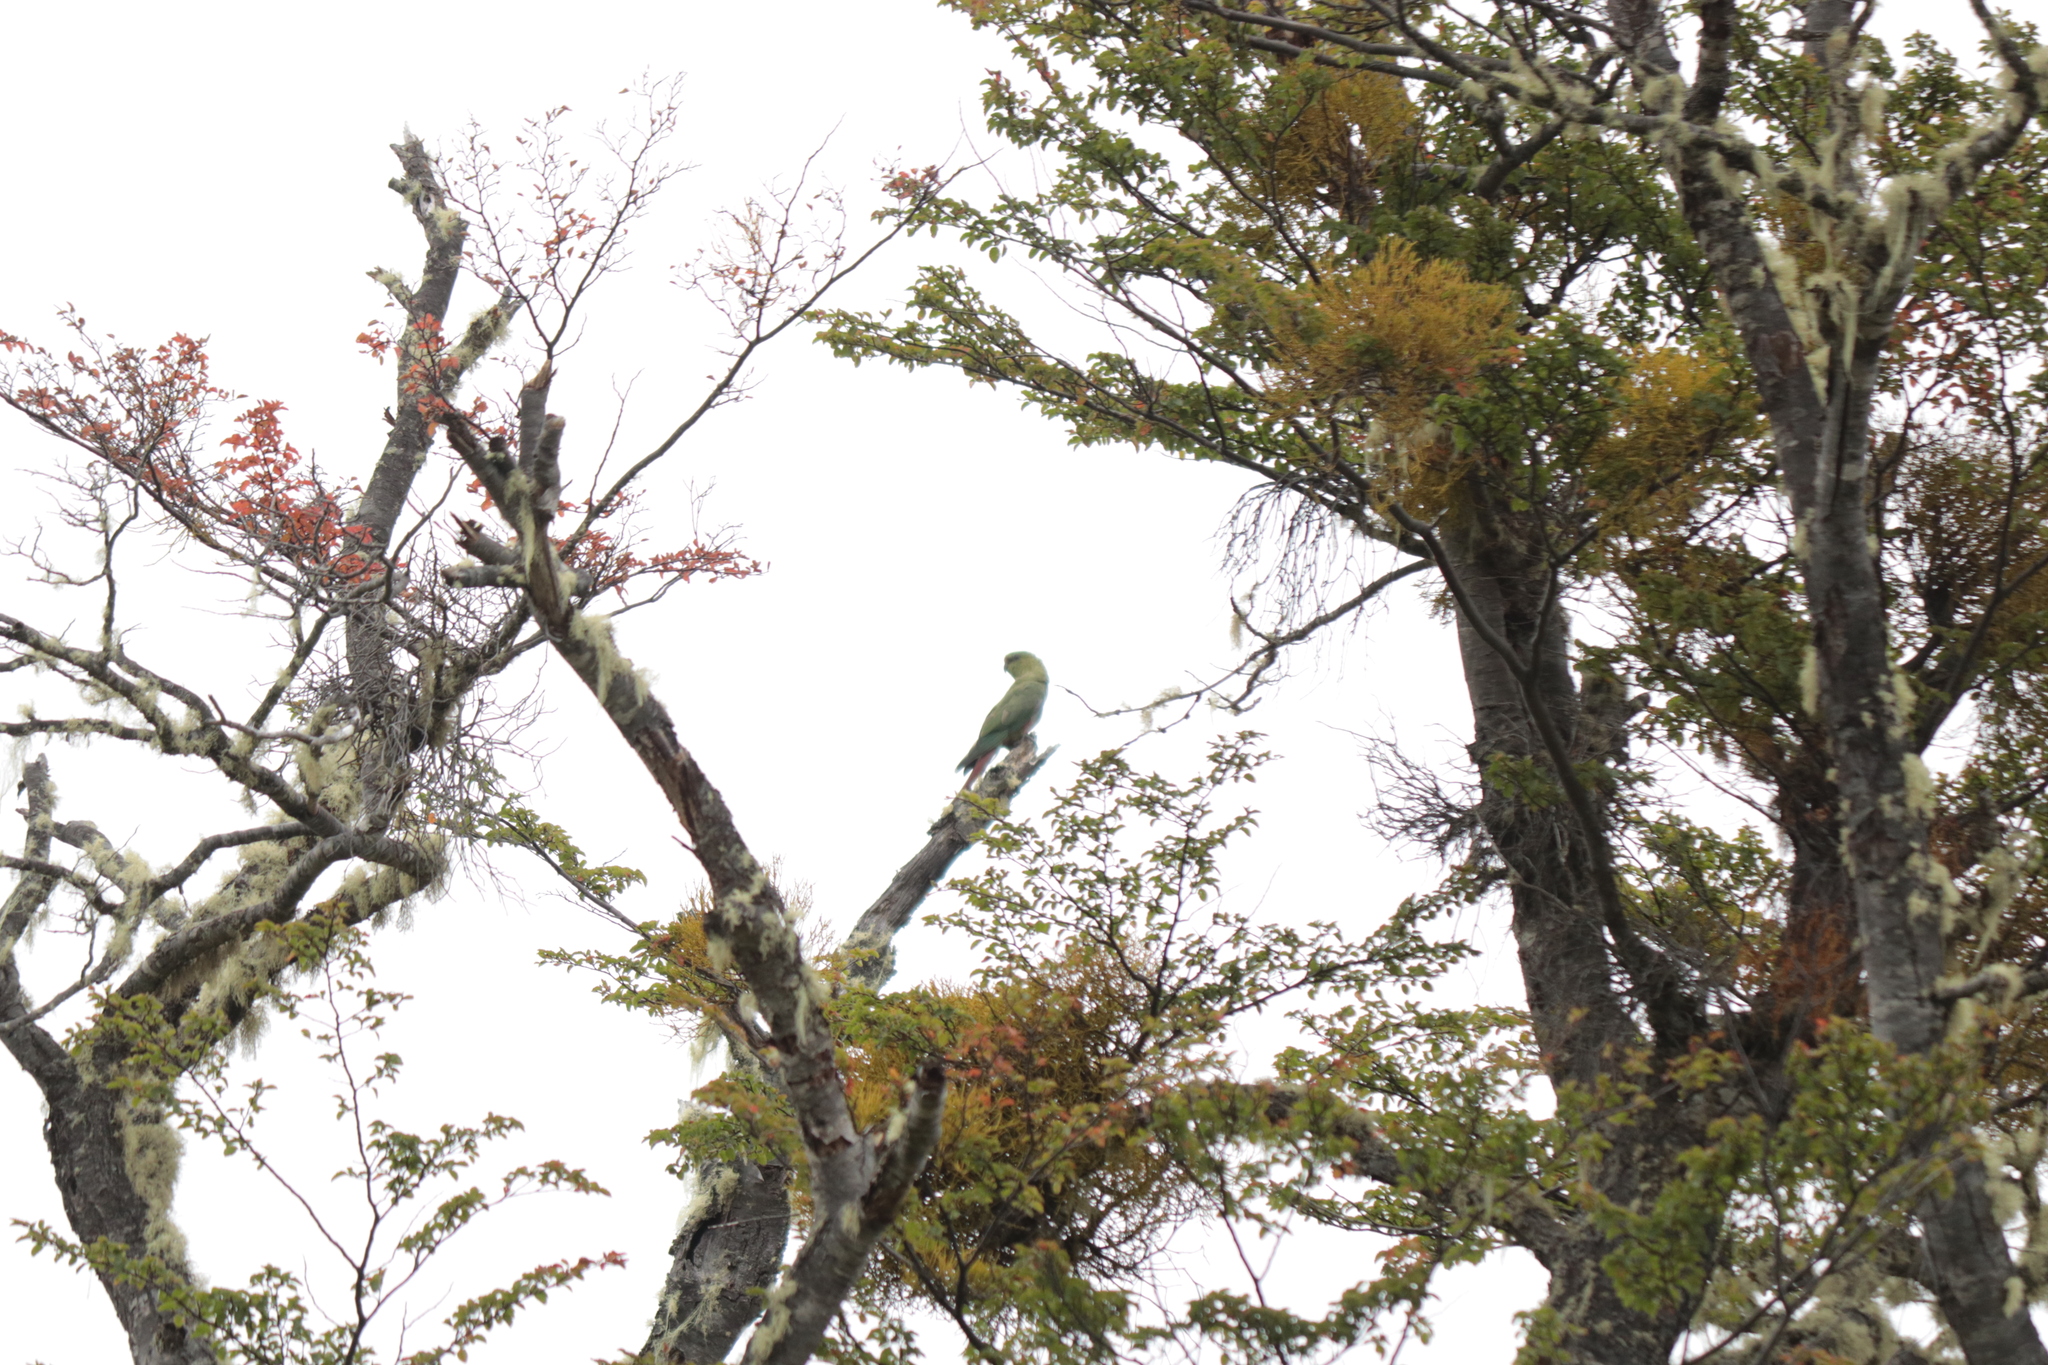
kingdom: Animalia
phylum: Chordata
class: Aves
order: Psittaciformes
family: Psittacidae
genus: Enicognathus
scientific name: Enicognathus ferrugineus
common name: Austral parakeet
